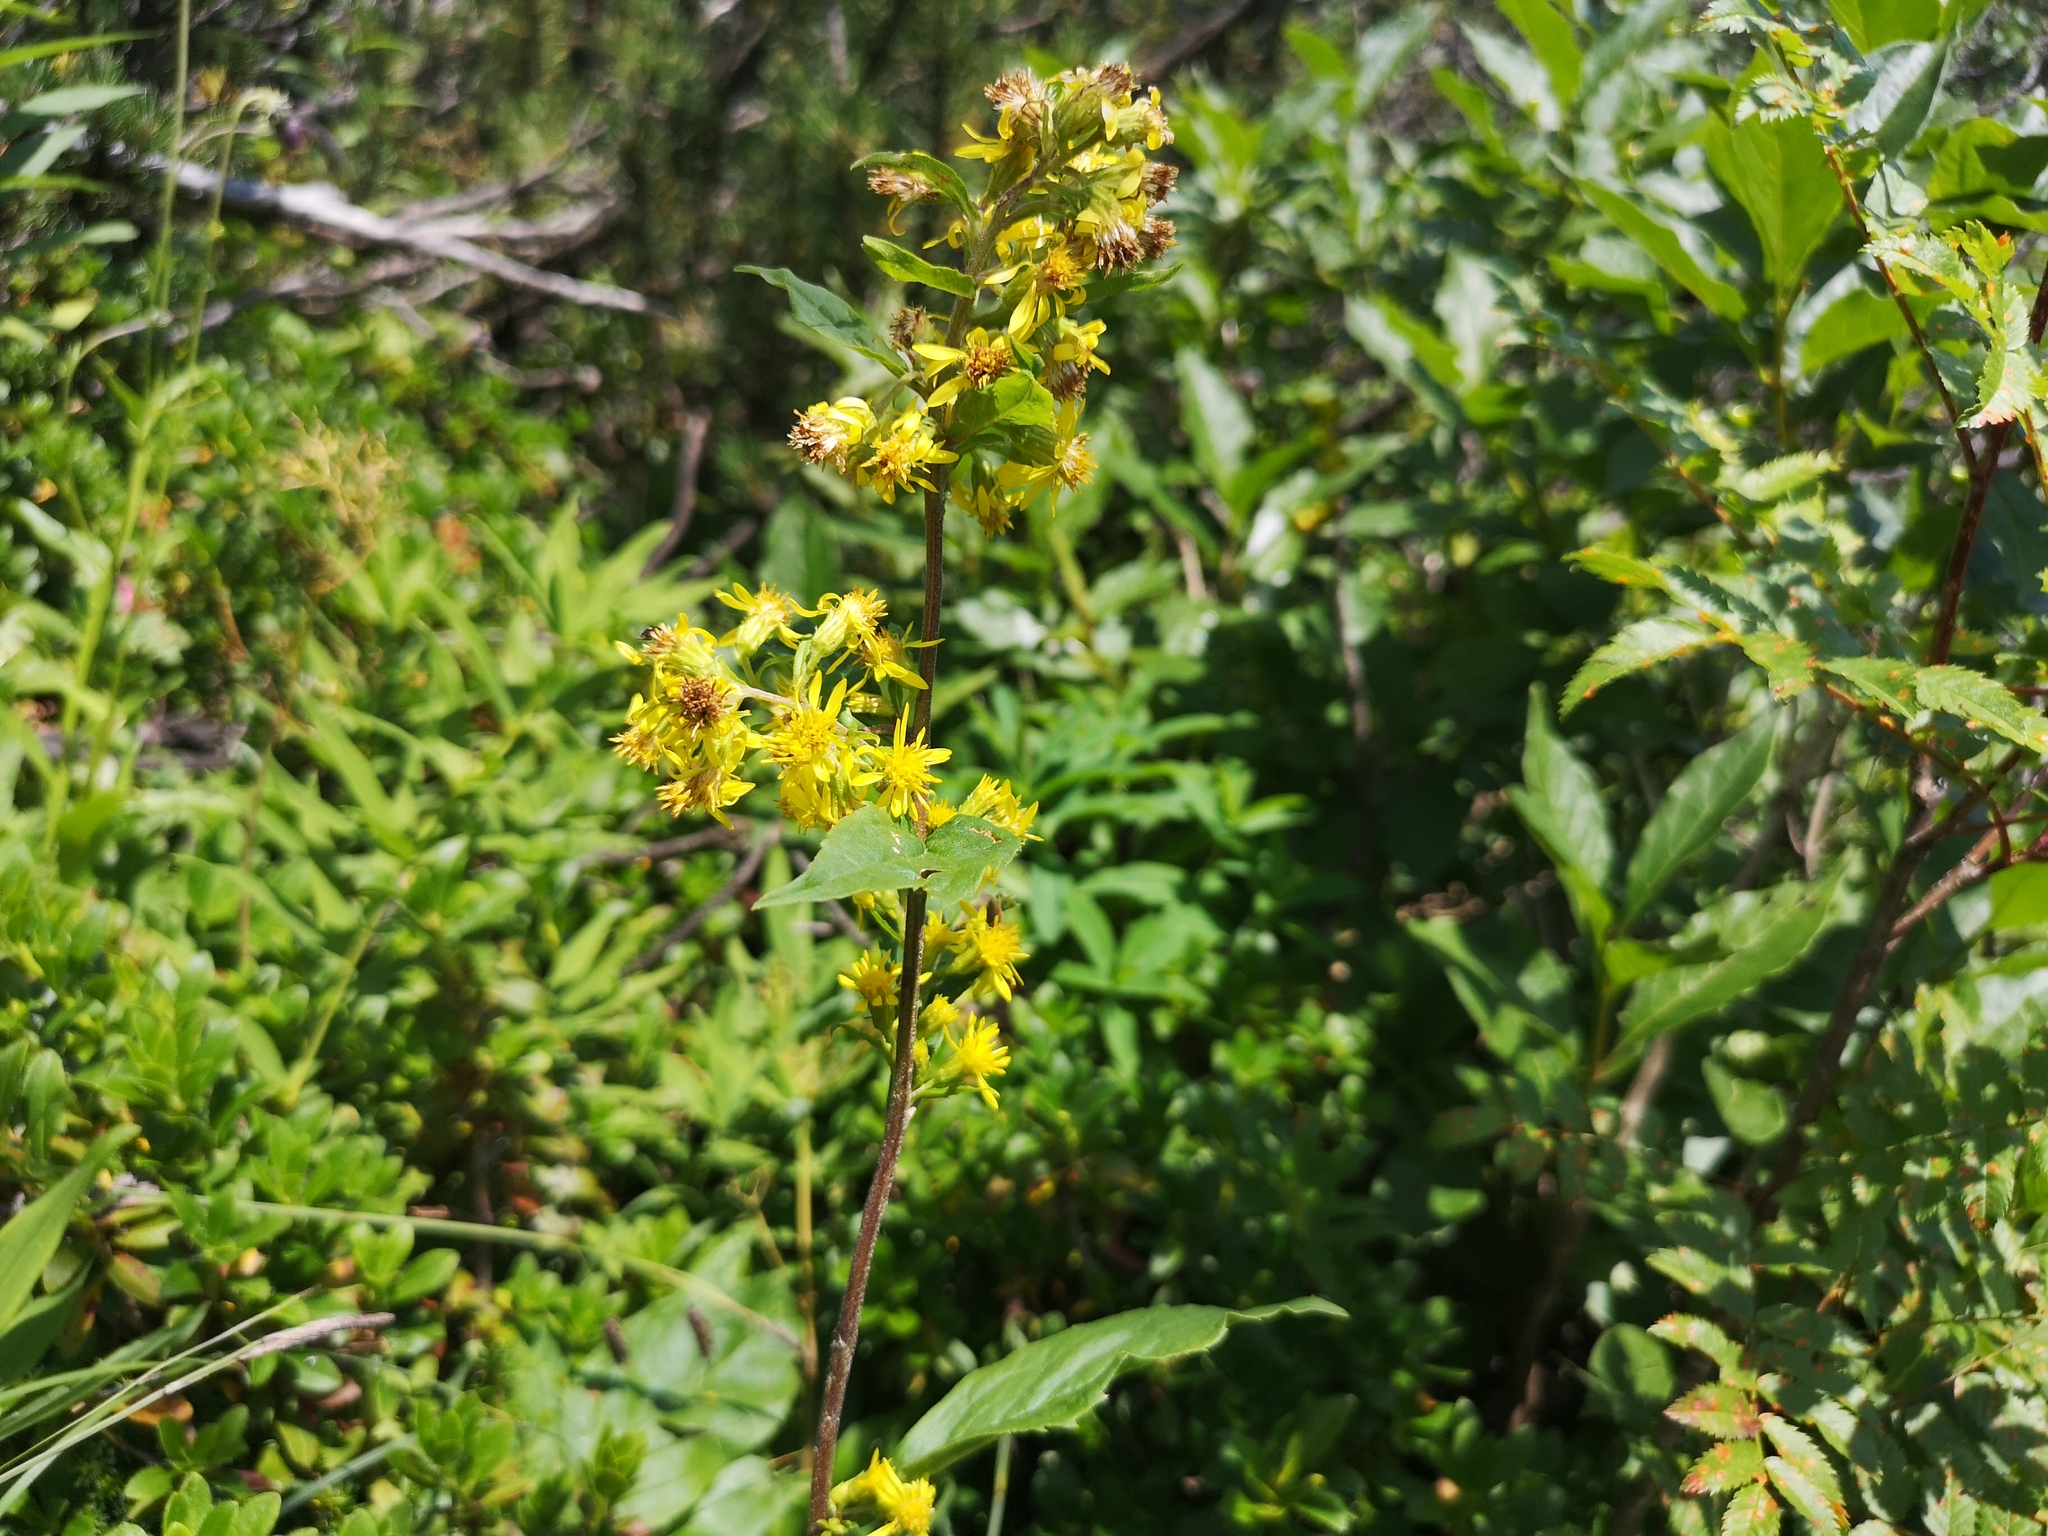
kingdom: Plantae
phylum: Tracheophyta
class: Magnoliopsida
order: Asterales
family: Asteraceae
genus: Solidago
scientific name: Solidago virgaurea
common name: Goldenrod
